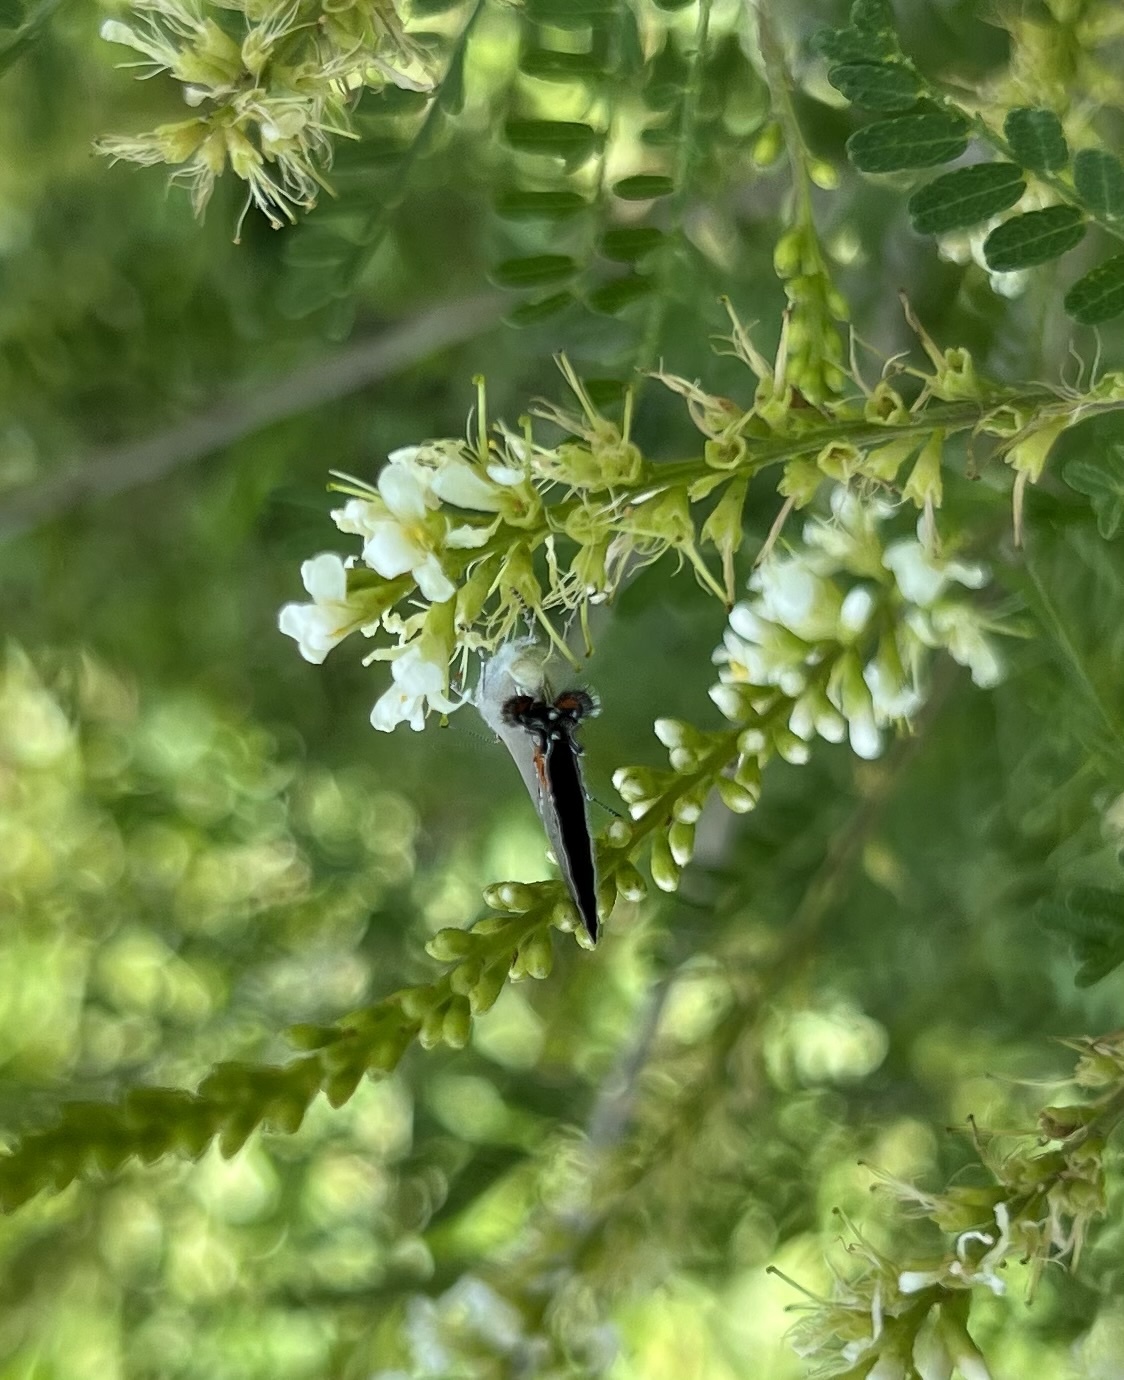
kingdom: Animalia
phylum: Arthropoda
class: Insecta
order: Lepidoptera
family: Lycaenidae
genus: Strymon
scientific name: Strymon melinus
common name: Gray hairstreak
